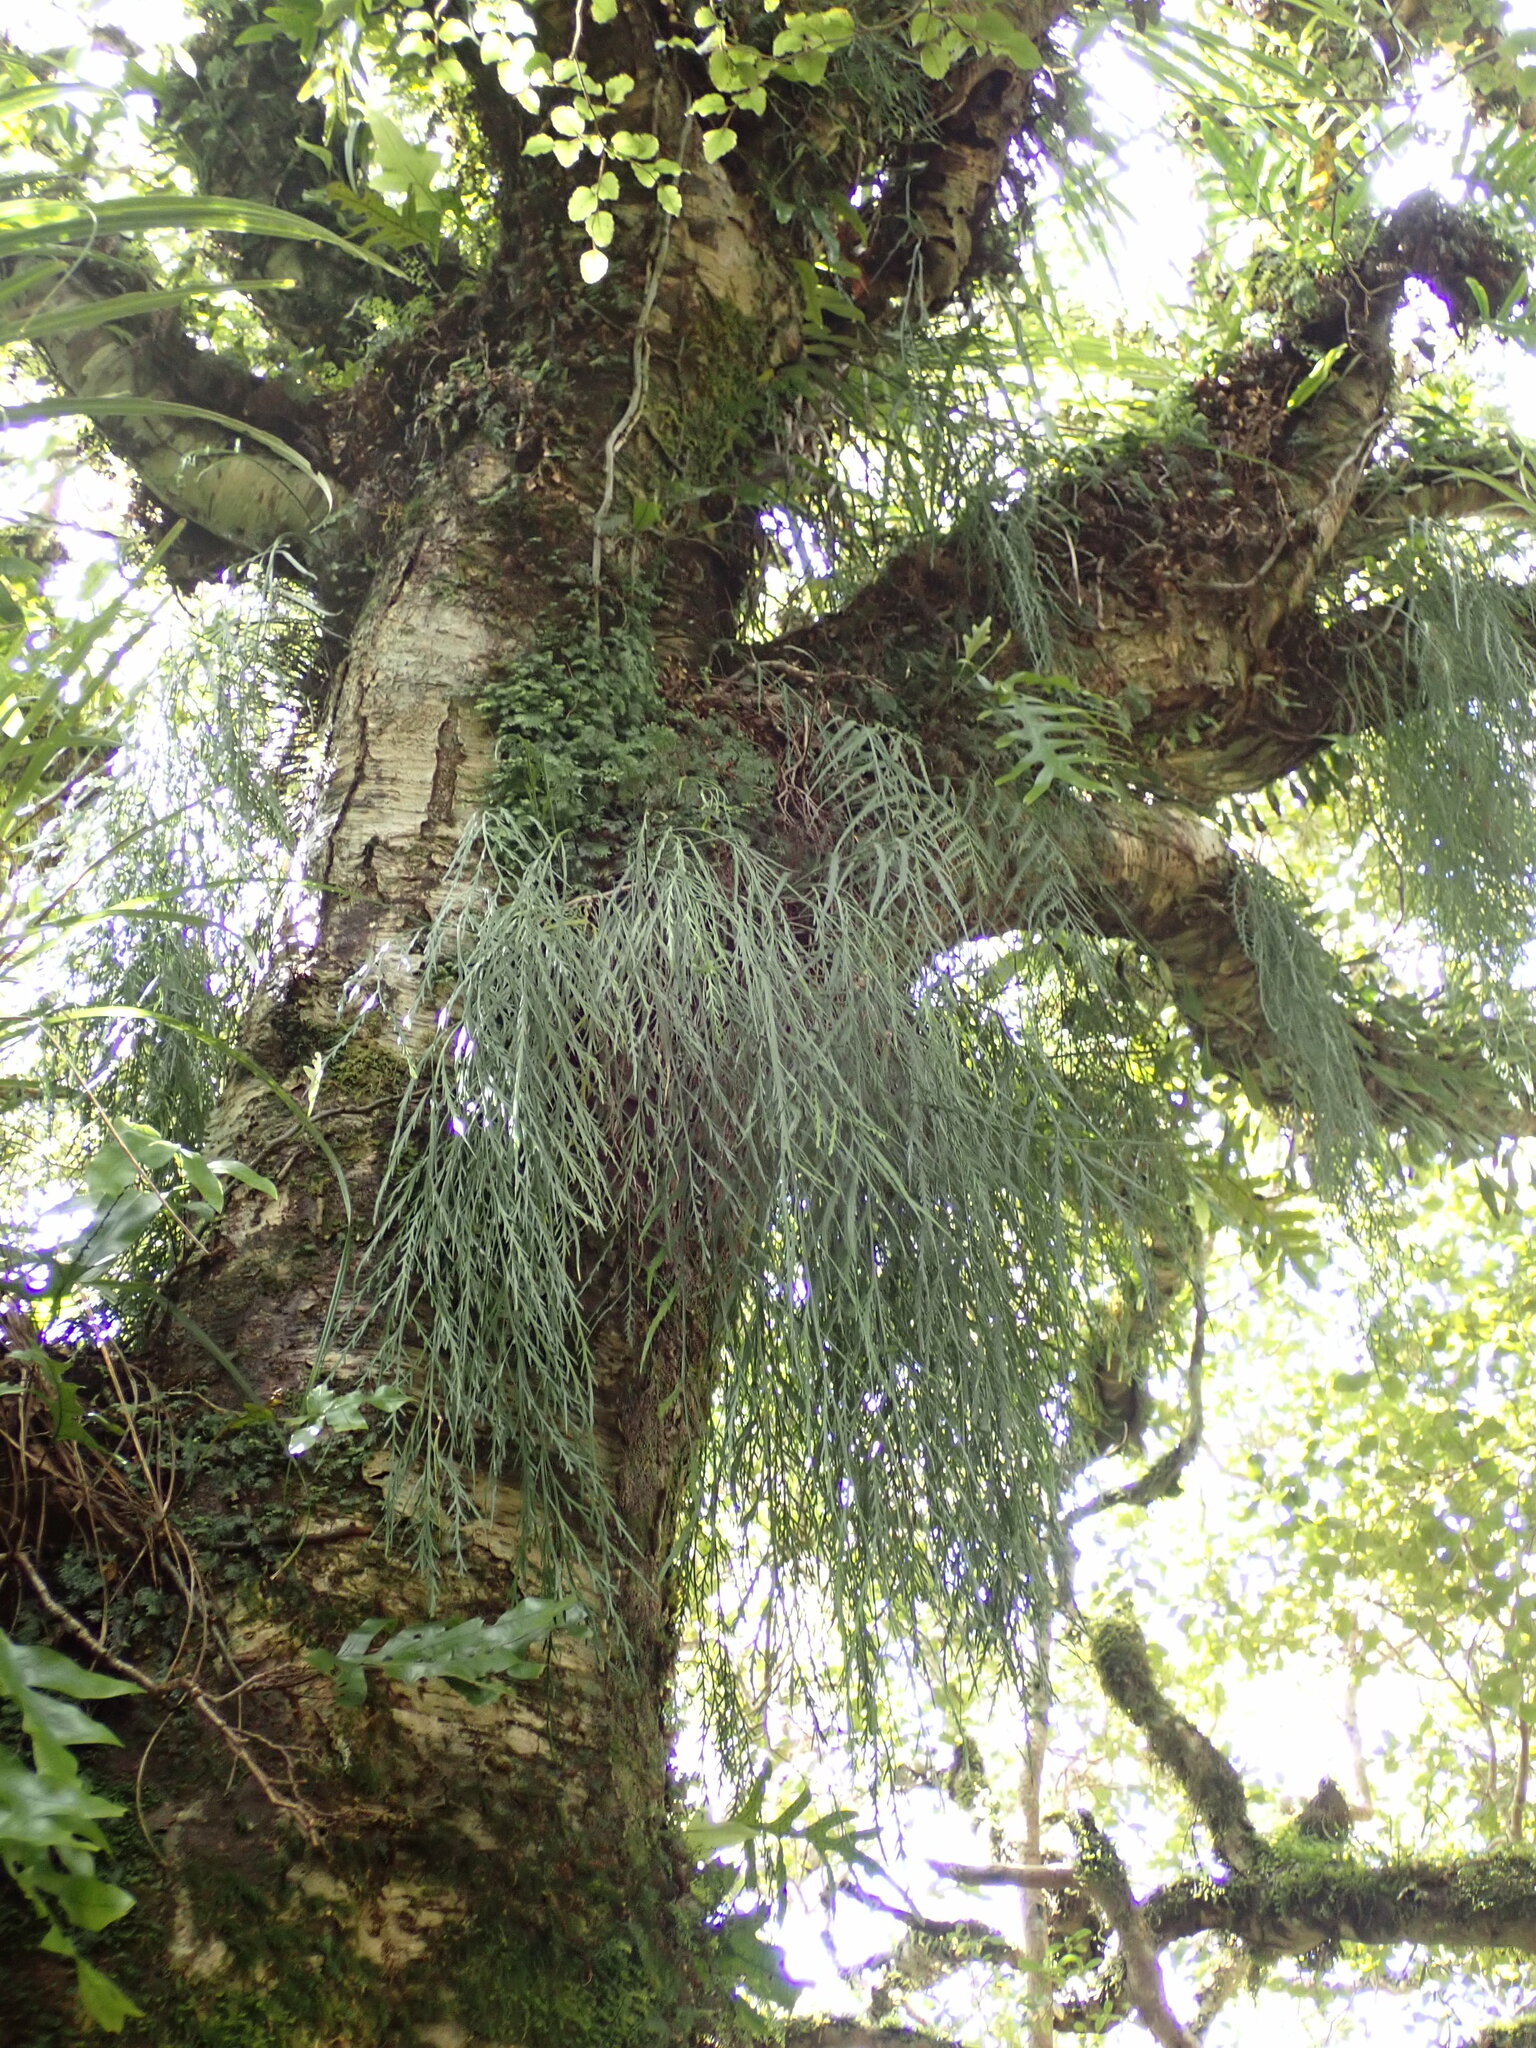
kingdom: Plantae
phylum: Tracheophyta
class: Polypodiopsida
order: Polypodiales
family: Aspleniaceae
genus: Asplenium
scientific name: Asplenium flaccidum
